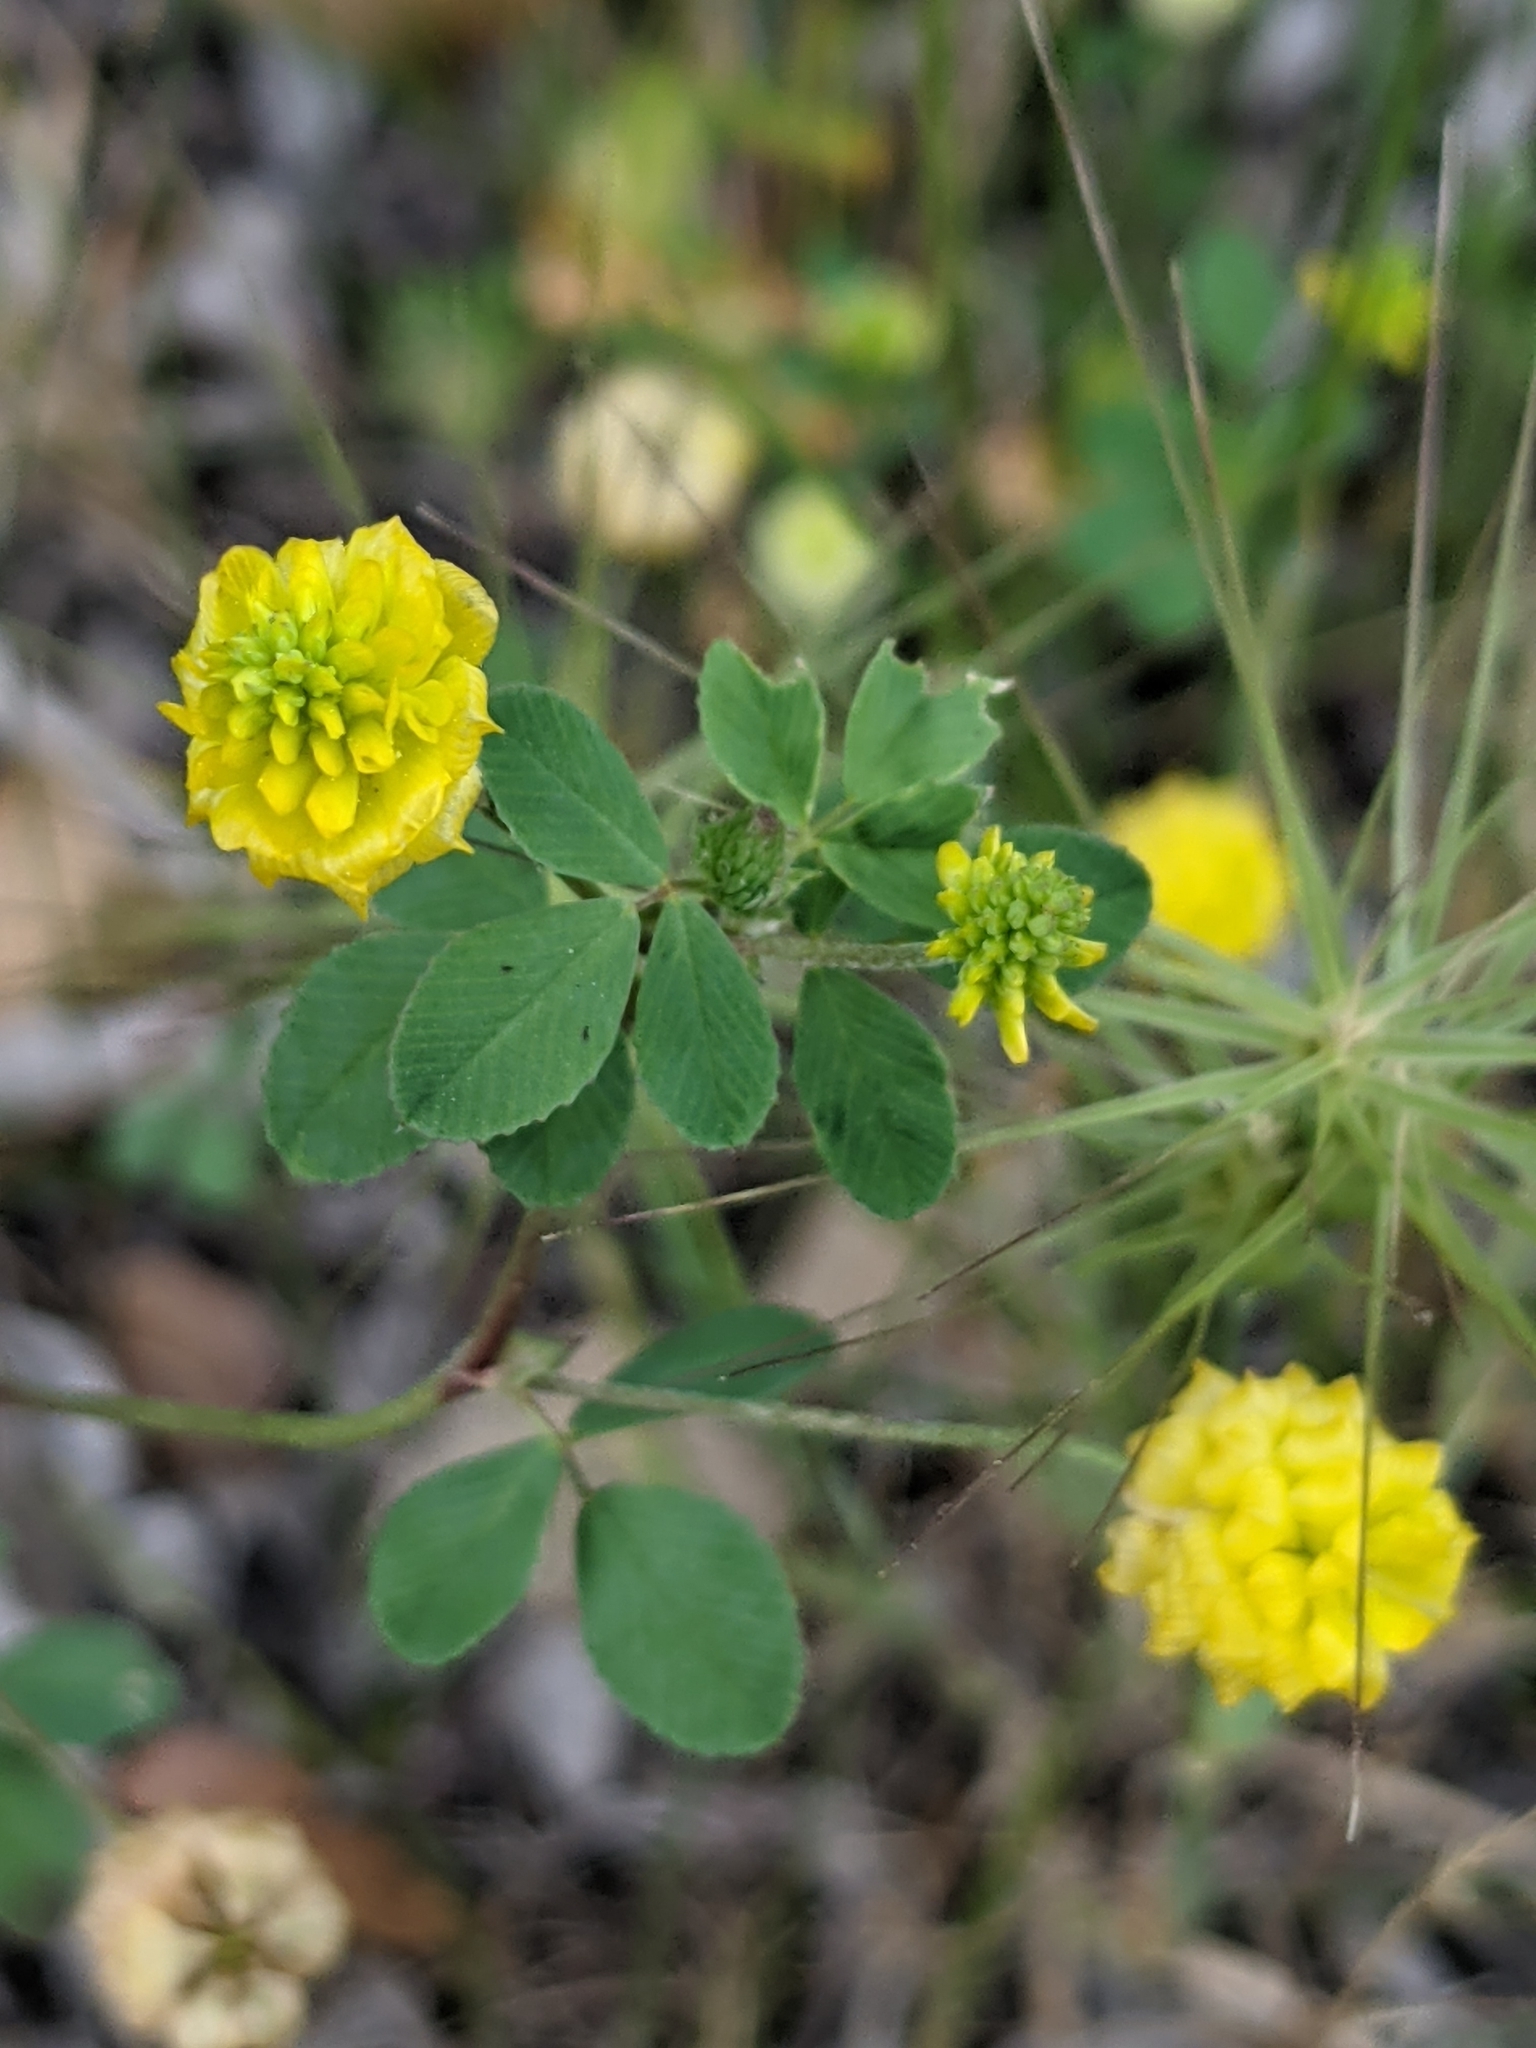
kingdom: Plantae
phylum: Tracheophyta
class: Magnoliopsida
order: Fabales
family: Fabaceae
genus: Trifolium
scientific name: Trifolium campestre
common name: Field clover
